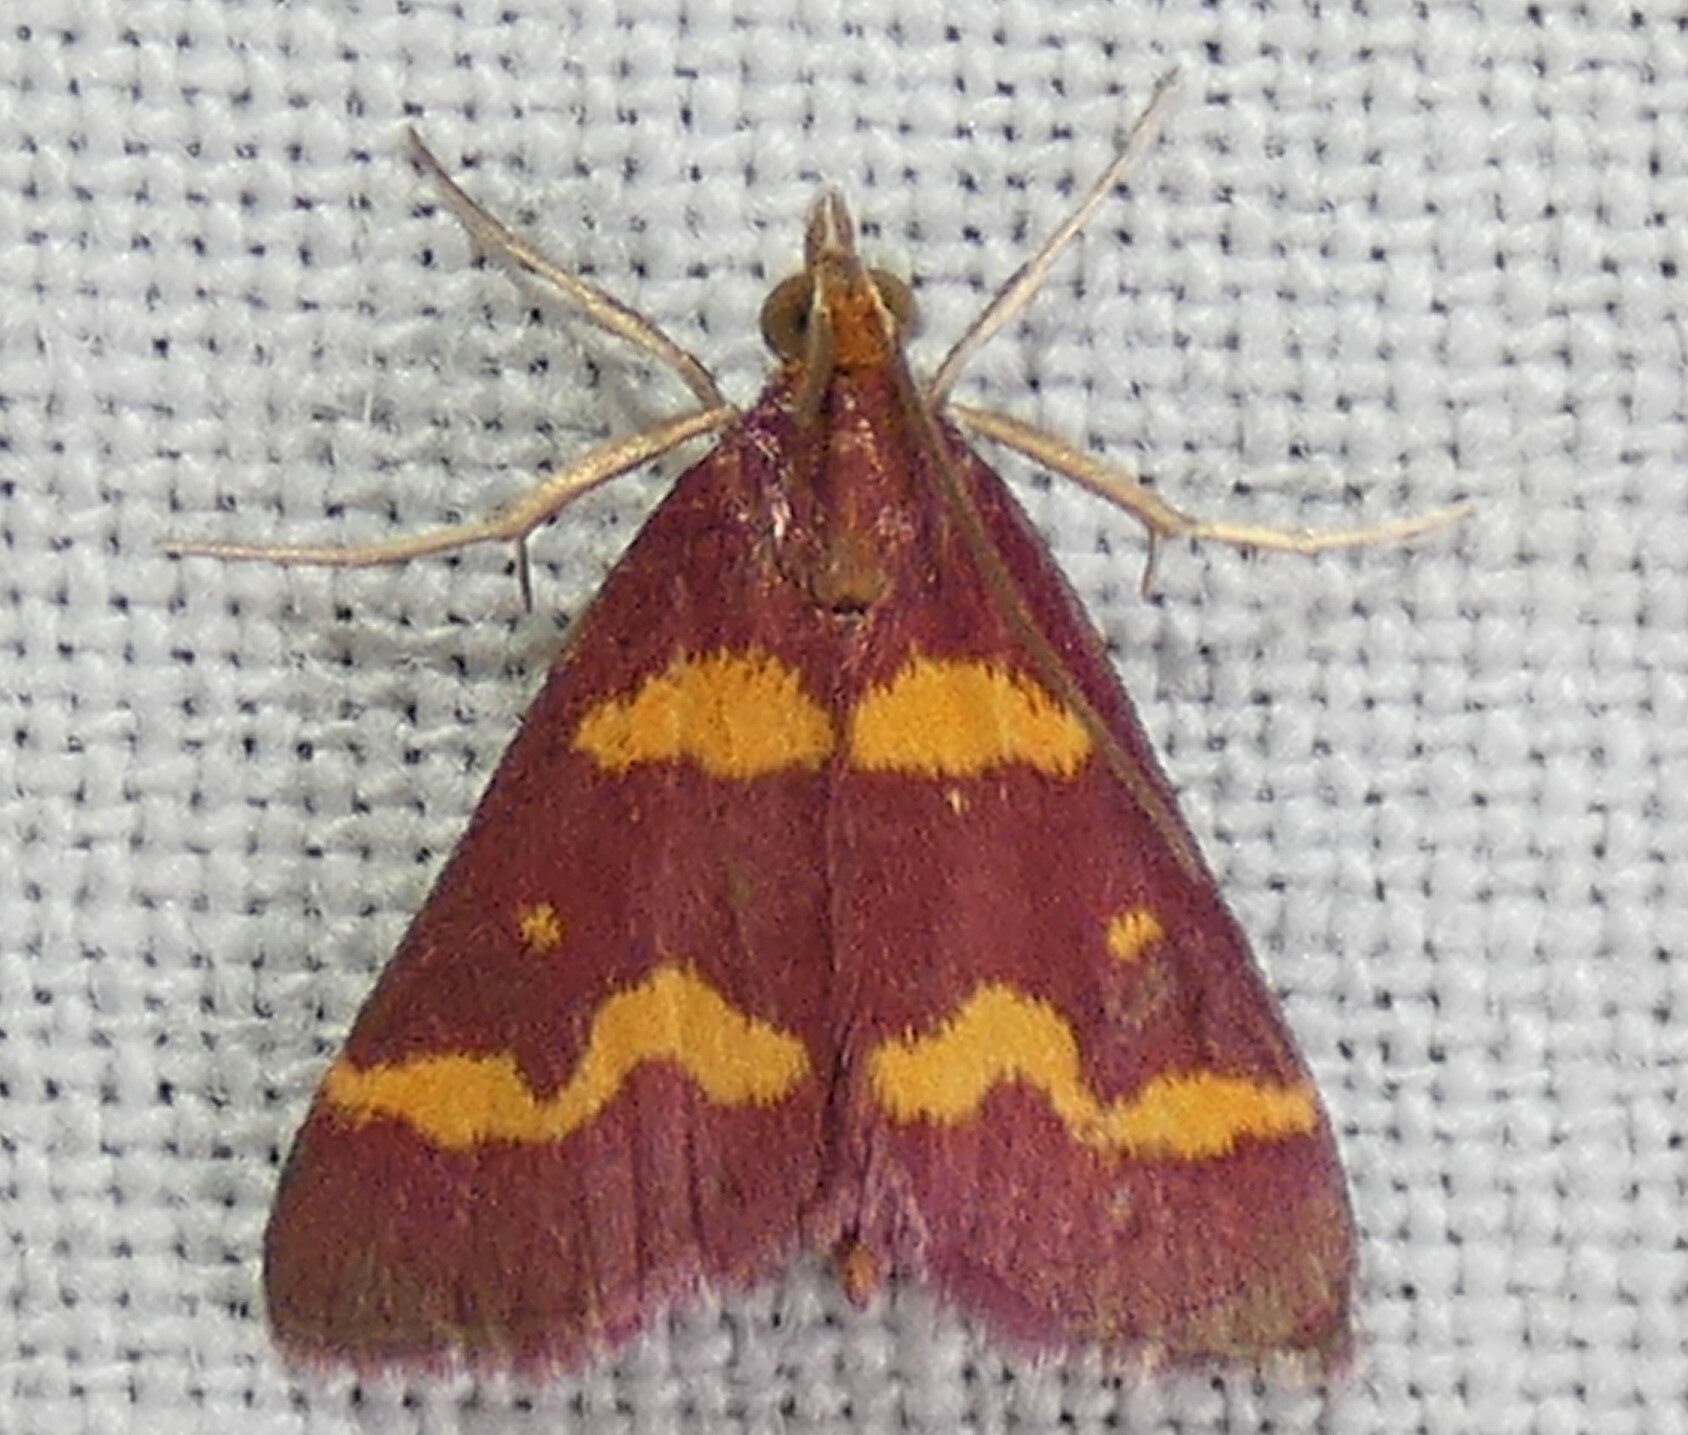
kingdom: Animalia
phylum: Arthropoda
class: Insecta
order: Lepidoptera
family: Crambidae
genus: Pyrausta
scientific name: Pyrausta tyralis
